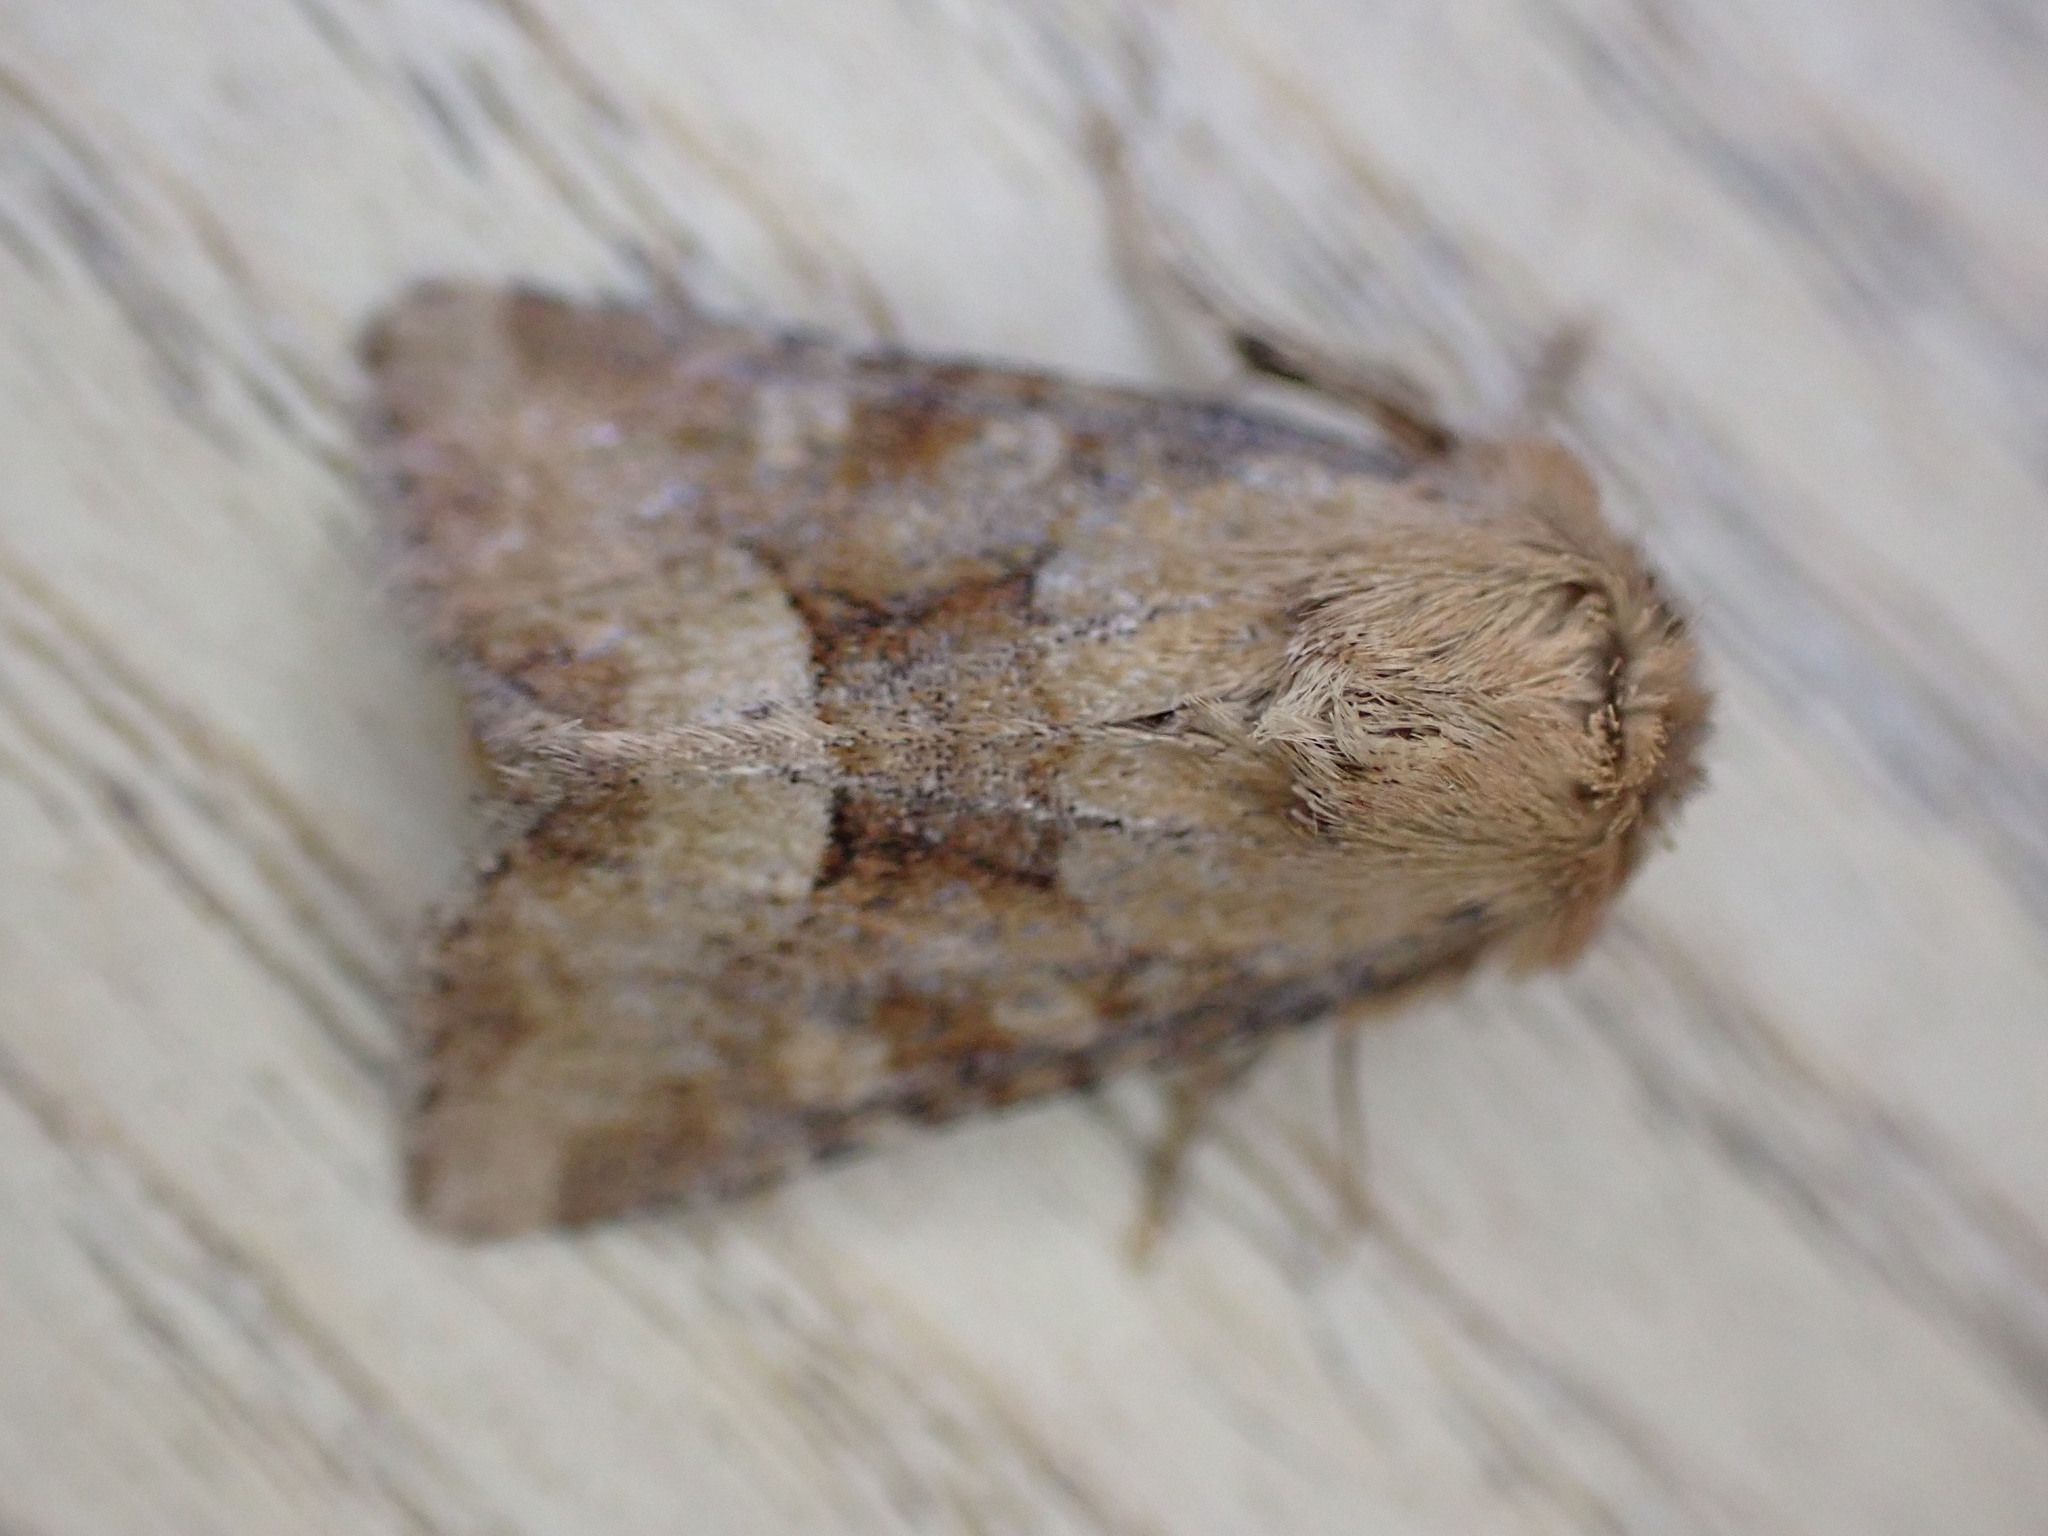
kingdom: Animalia
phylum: Arthropoda
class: Insecta
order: Lepidoptera
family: Noctuidae
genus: Oligia
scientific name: Oligia fasciuncula
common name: Middle-barred minor
